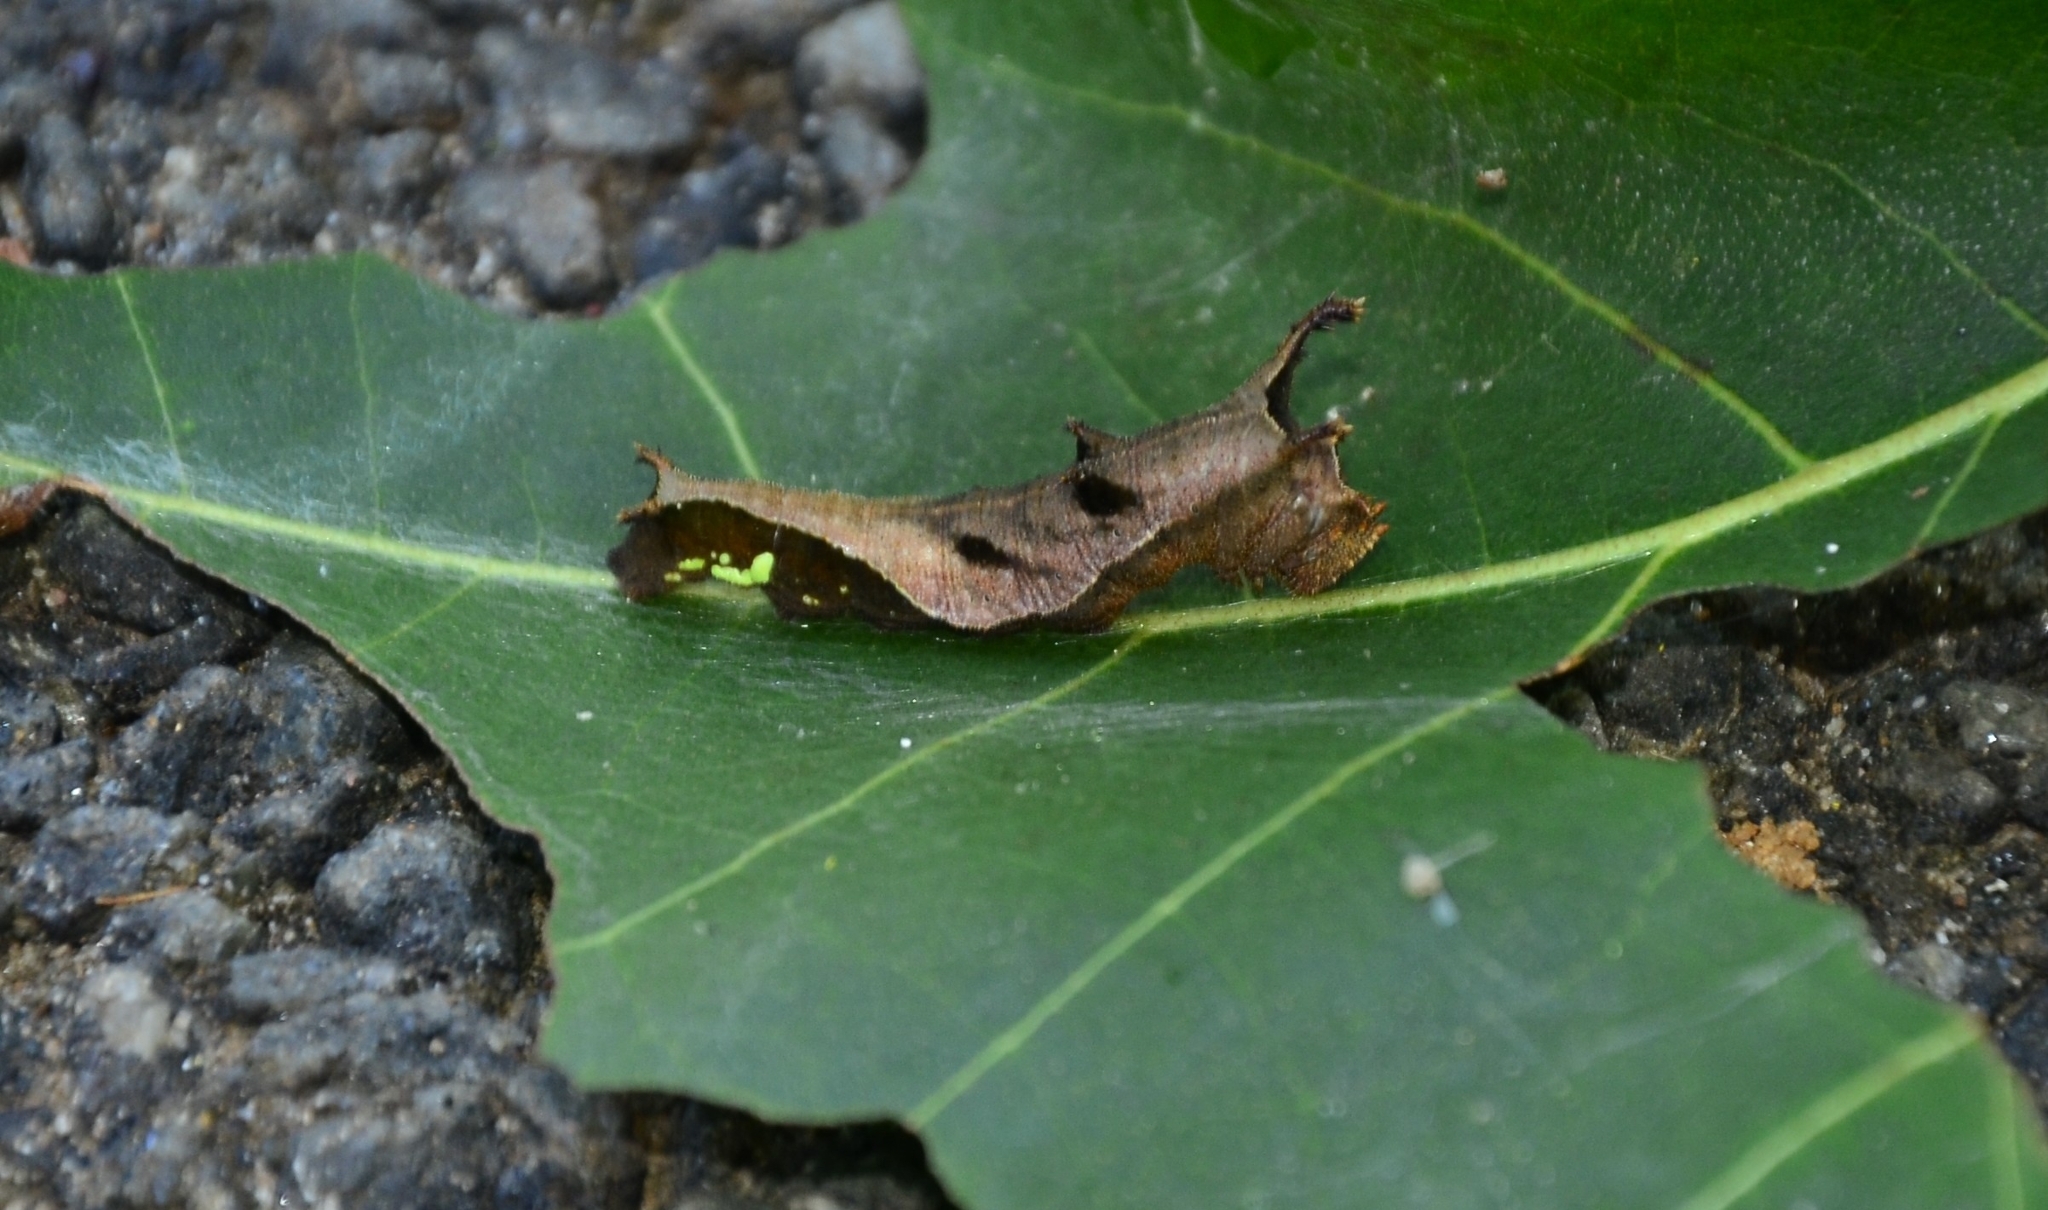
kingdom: Animalia
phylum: Arthropoda
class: Insecta
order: Lepidoptera
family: Nymphalidae
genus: Neptis
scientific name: Neptis jumbah
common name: Chestnut-streaked sailer
